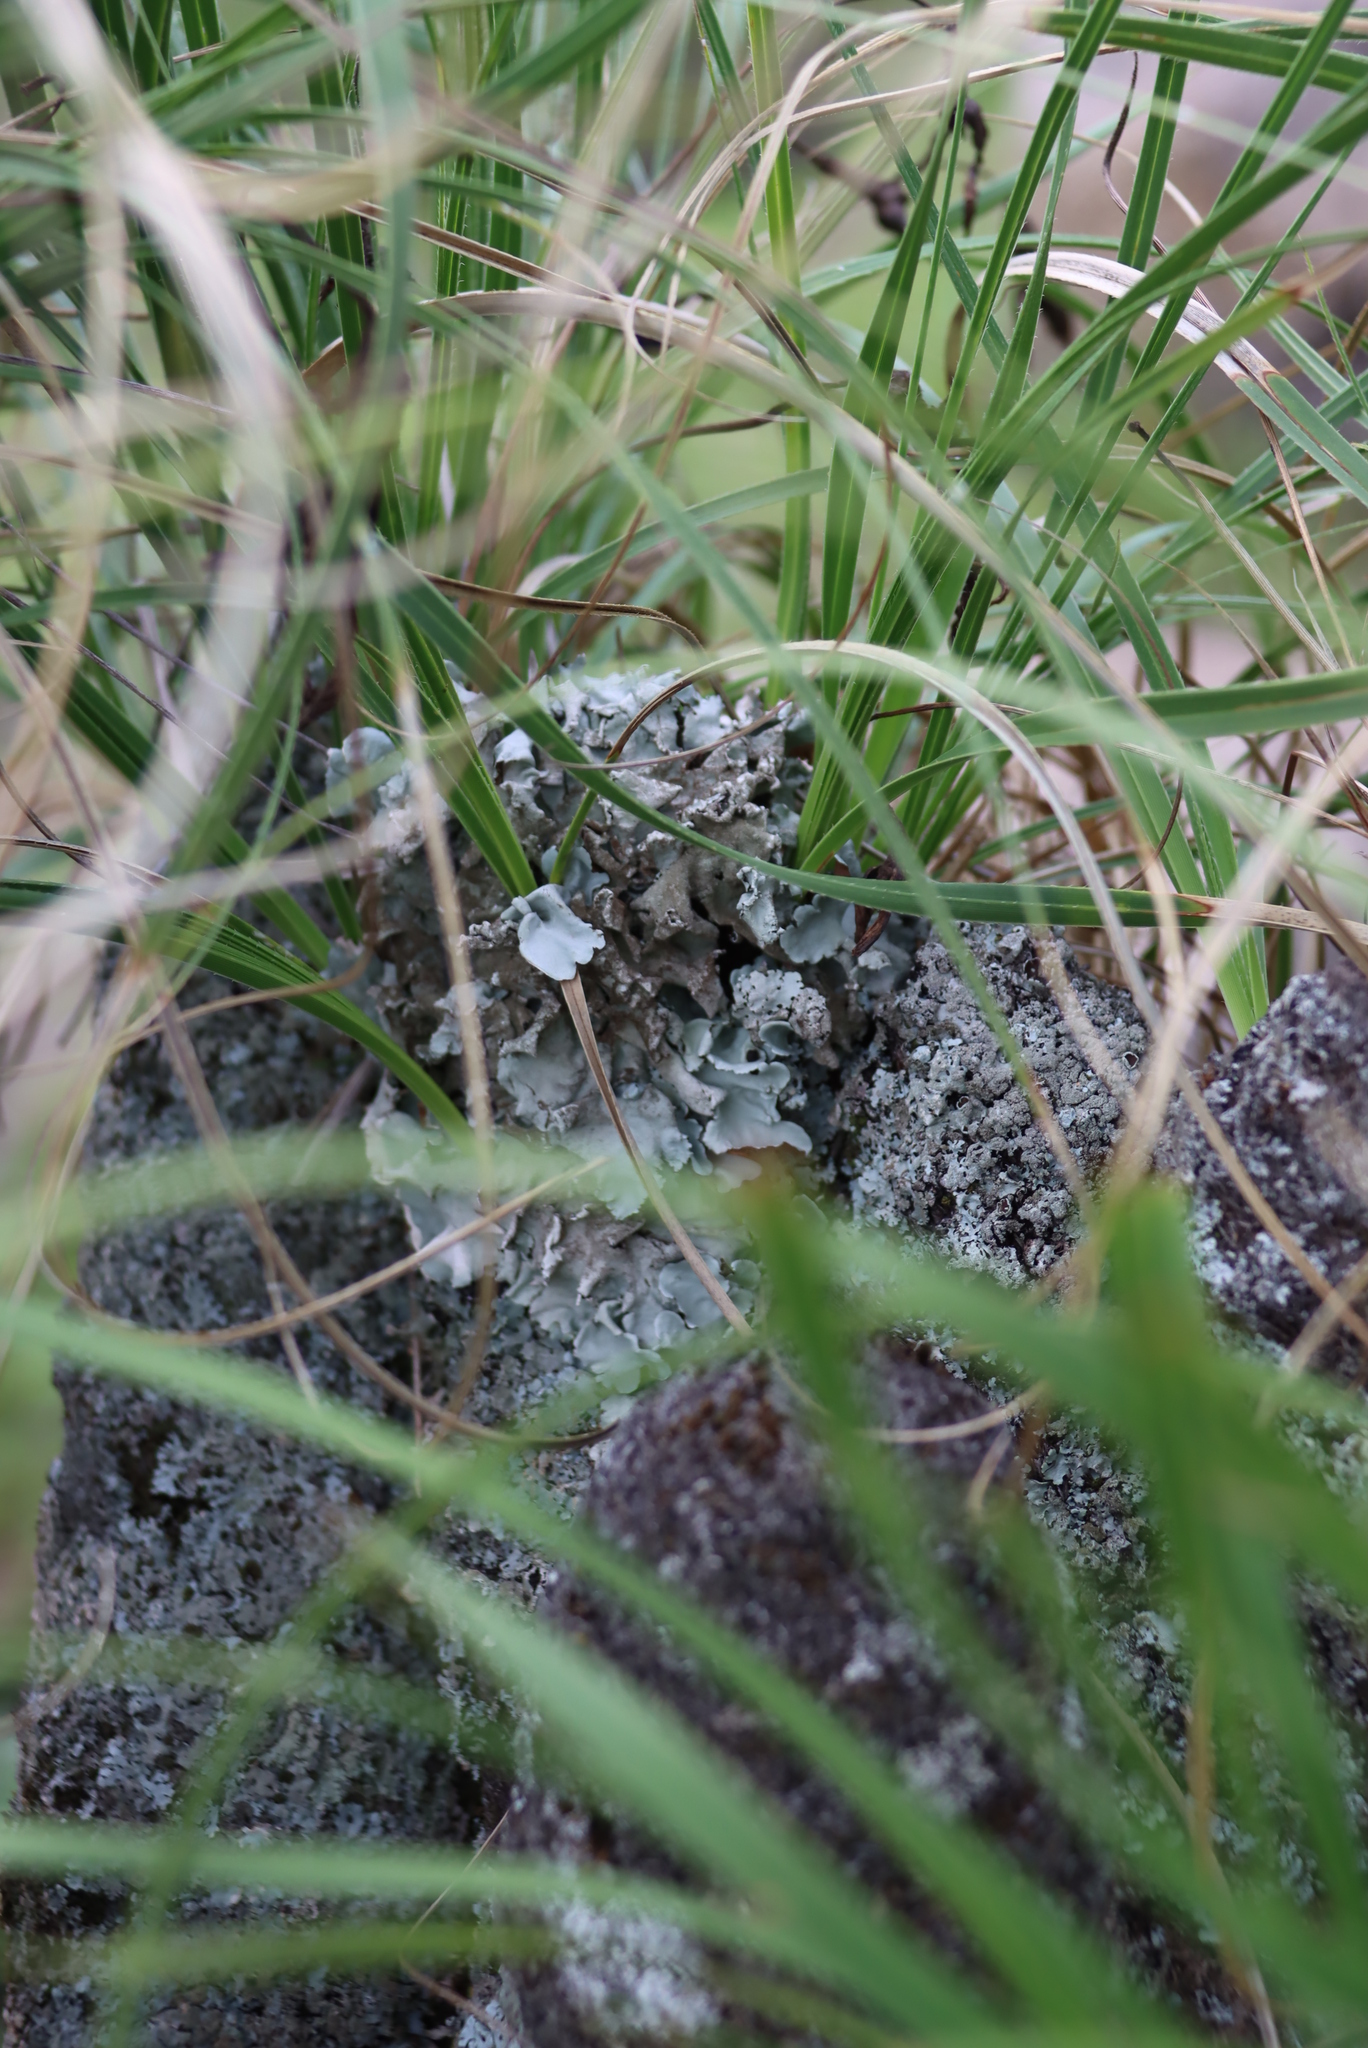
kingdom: Plantae
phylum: Tracheophyta
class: Liliopsida
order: Pandanales
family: Velloziaceae
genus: Xerophyta
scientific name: Xerophyta retinervis
